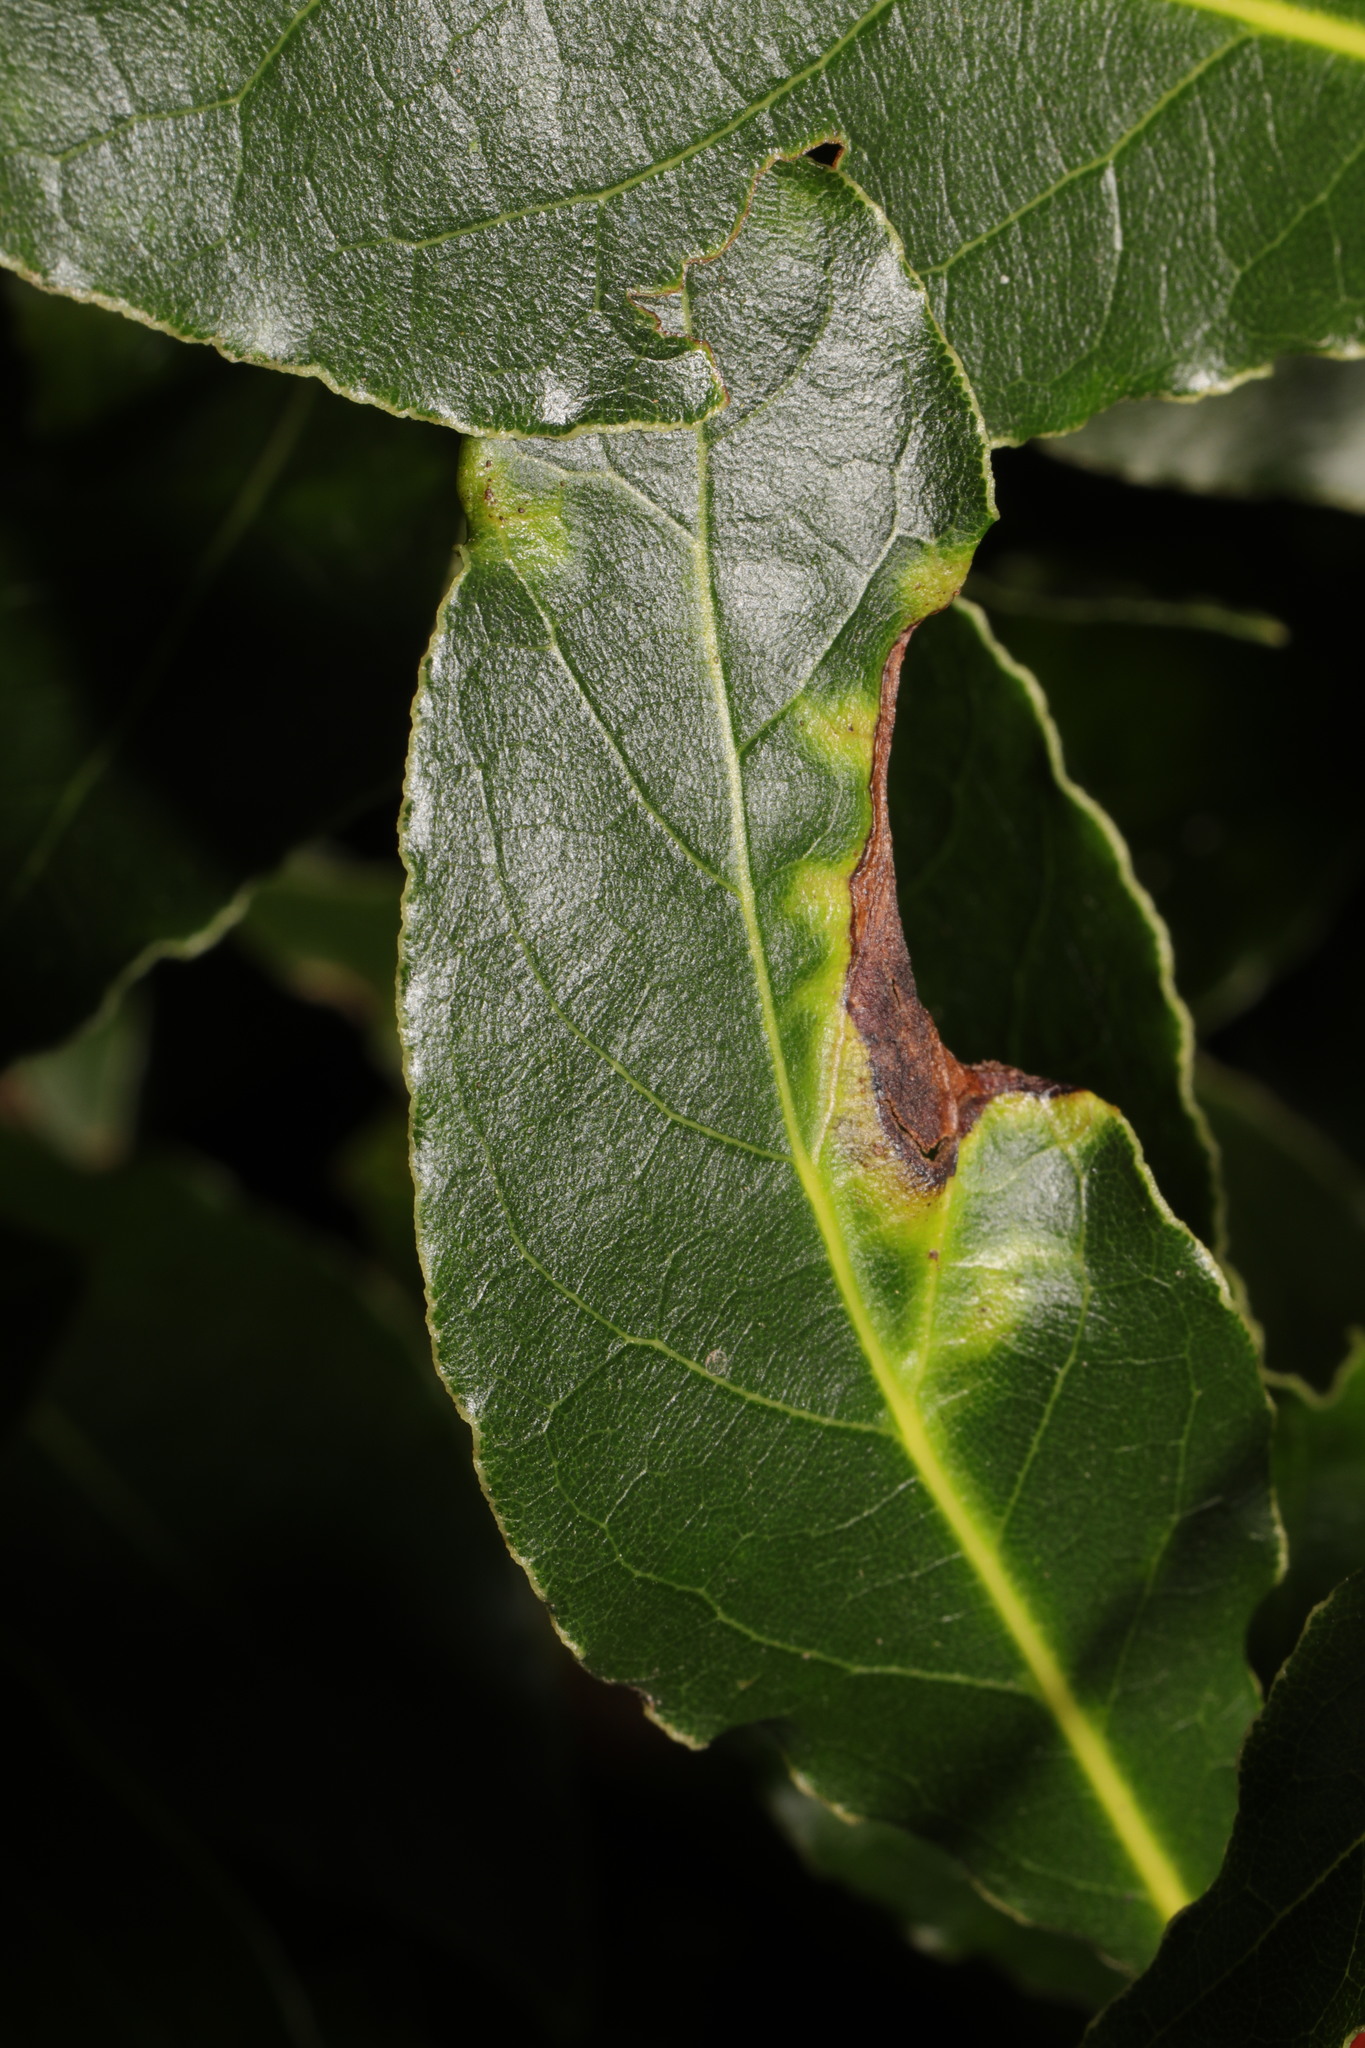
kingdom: Animalia
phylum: Arthropoda
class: Insecta
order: Hemiptera
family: Triozidae
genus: Lauritrioza
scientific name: Lauritrioza alacris
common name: Laurel psyllid
